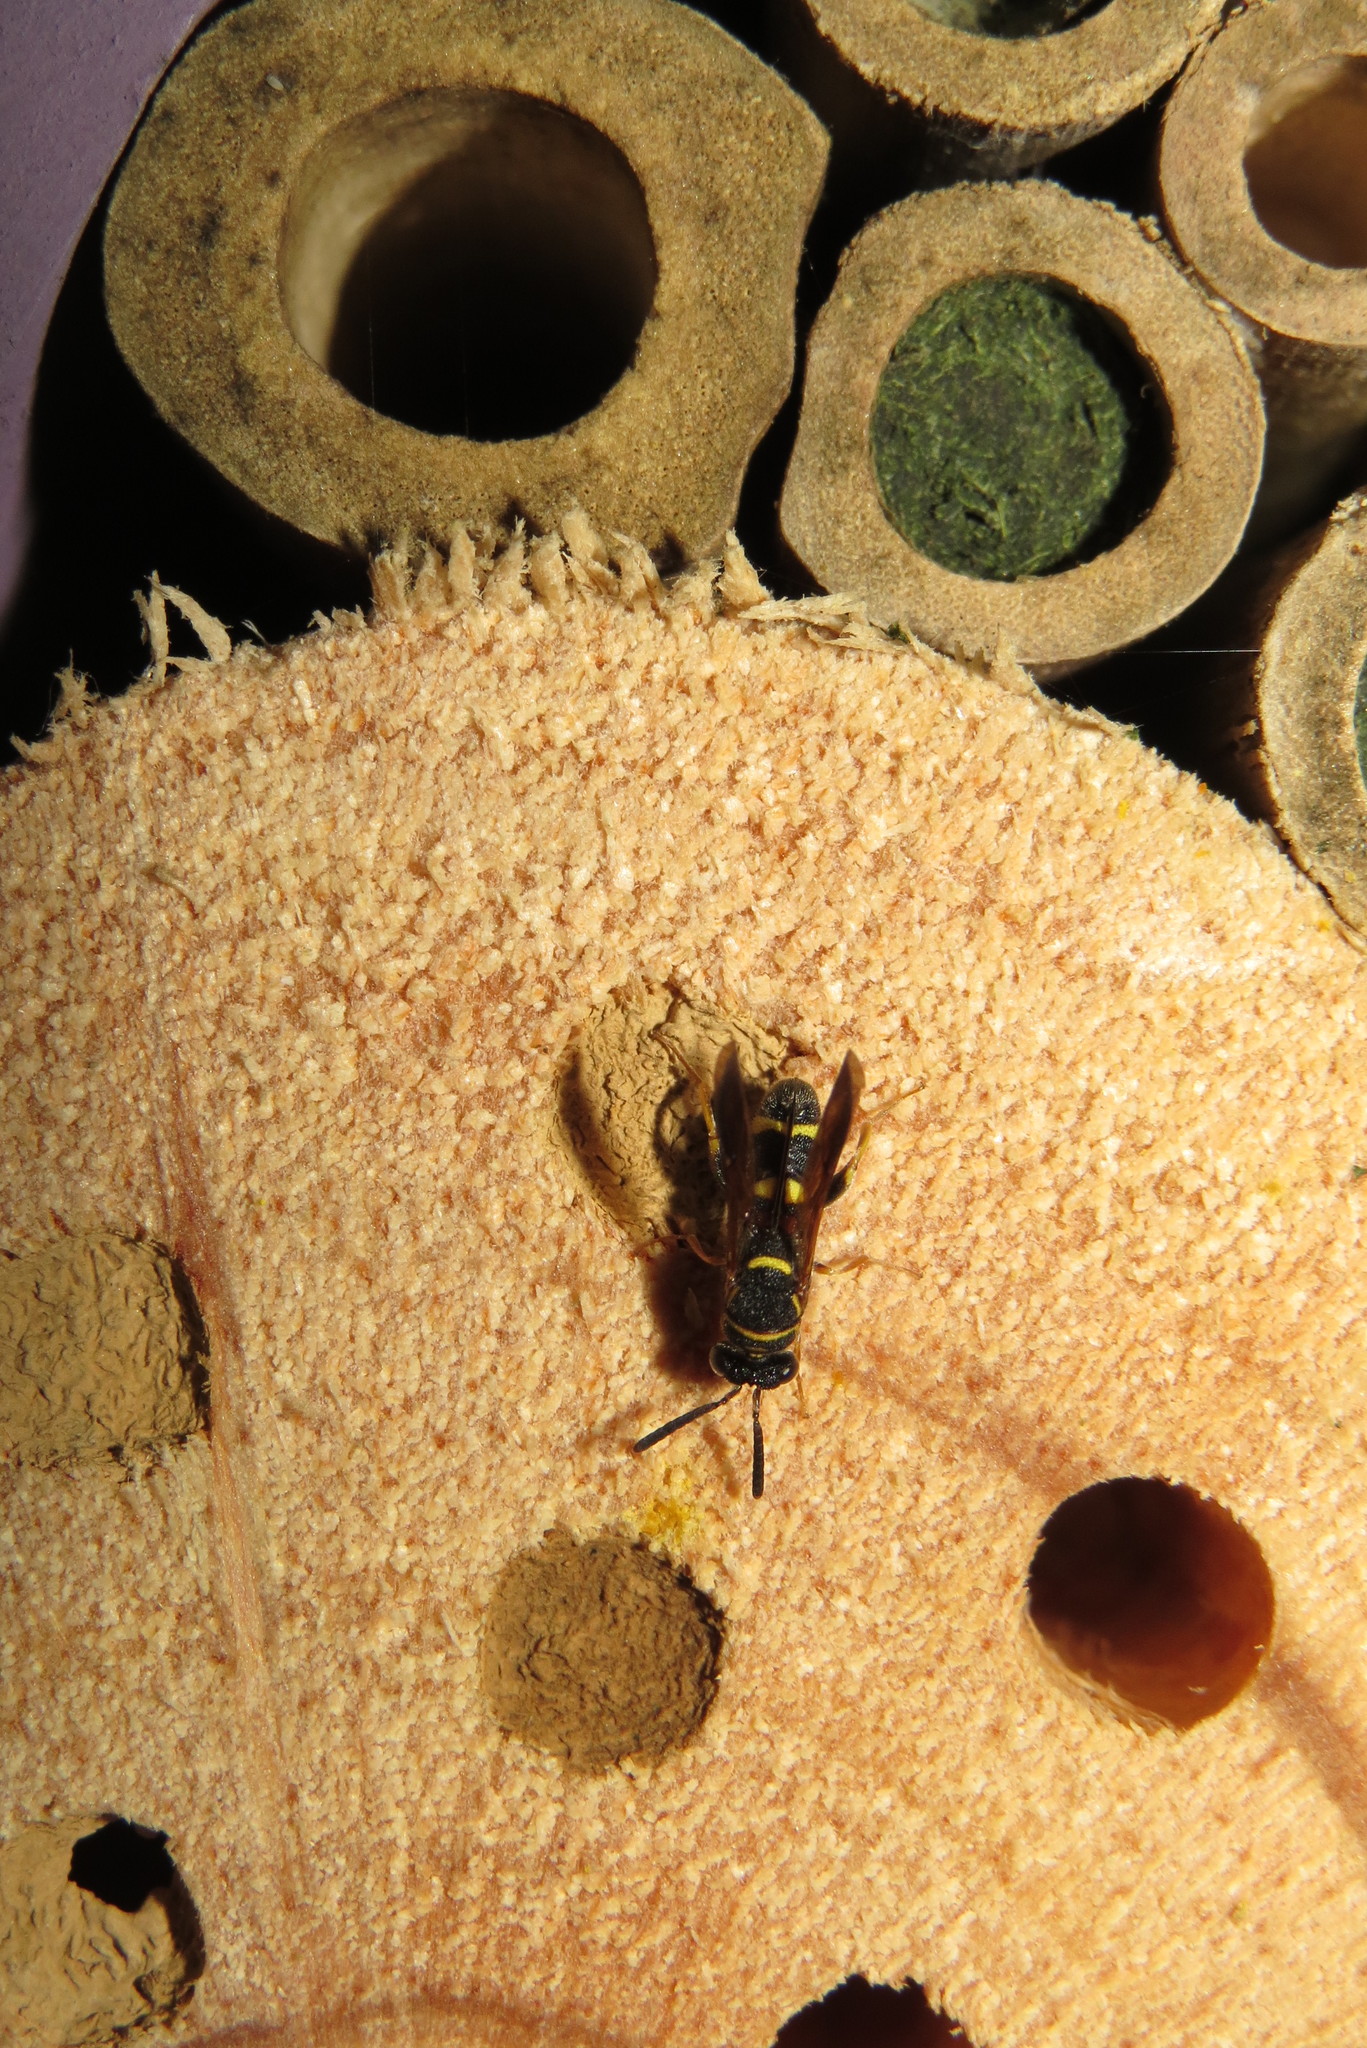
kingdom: Animalia
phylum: Arthropoda
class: Insecta
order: Hymenoptera
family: Leucospidae
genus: Leucospis
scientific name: Leucospis affinis
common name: Wasp
